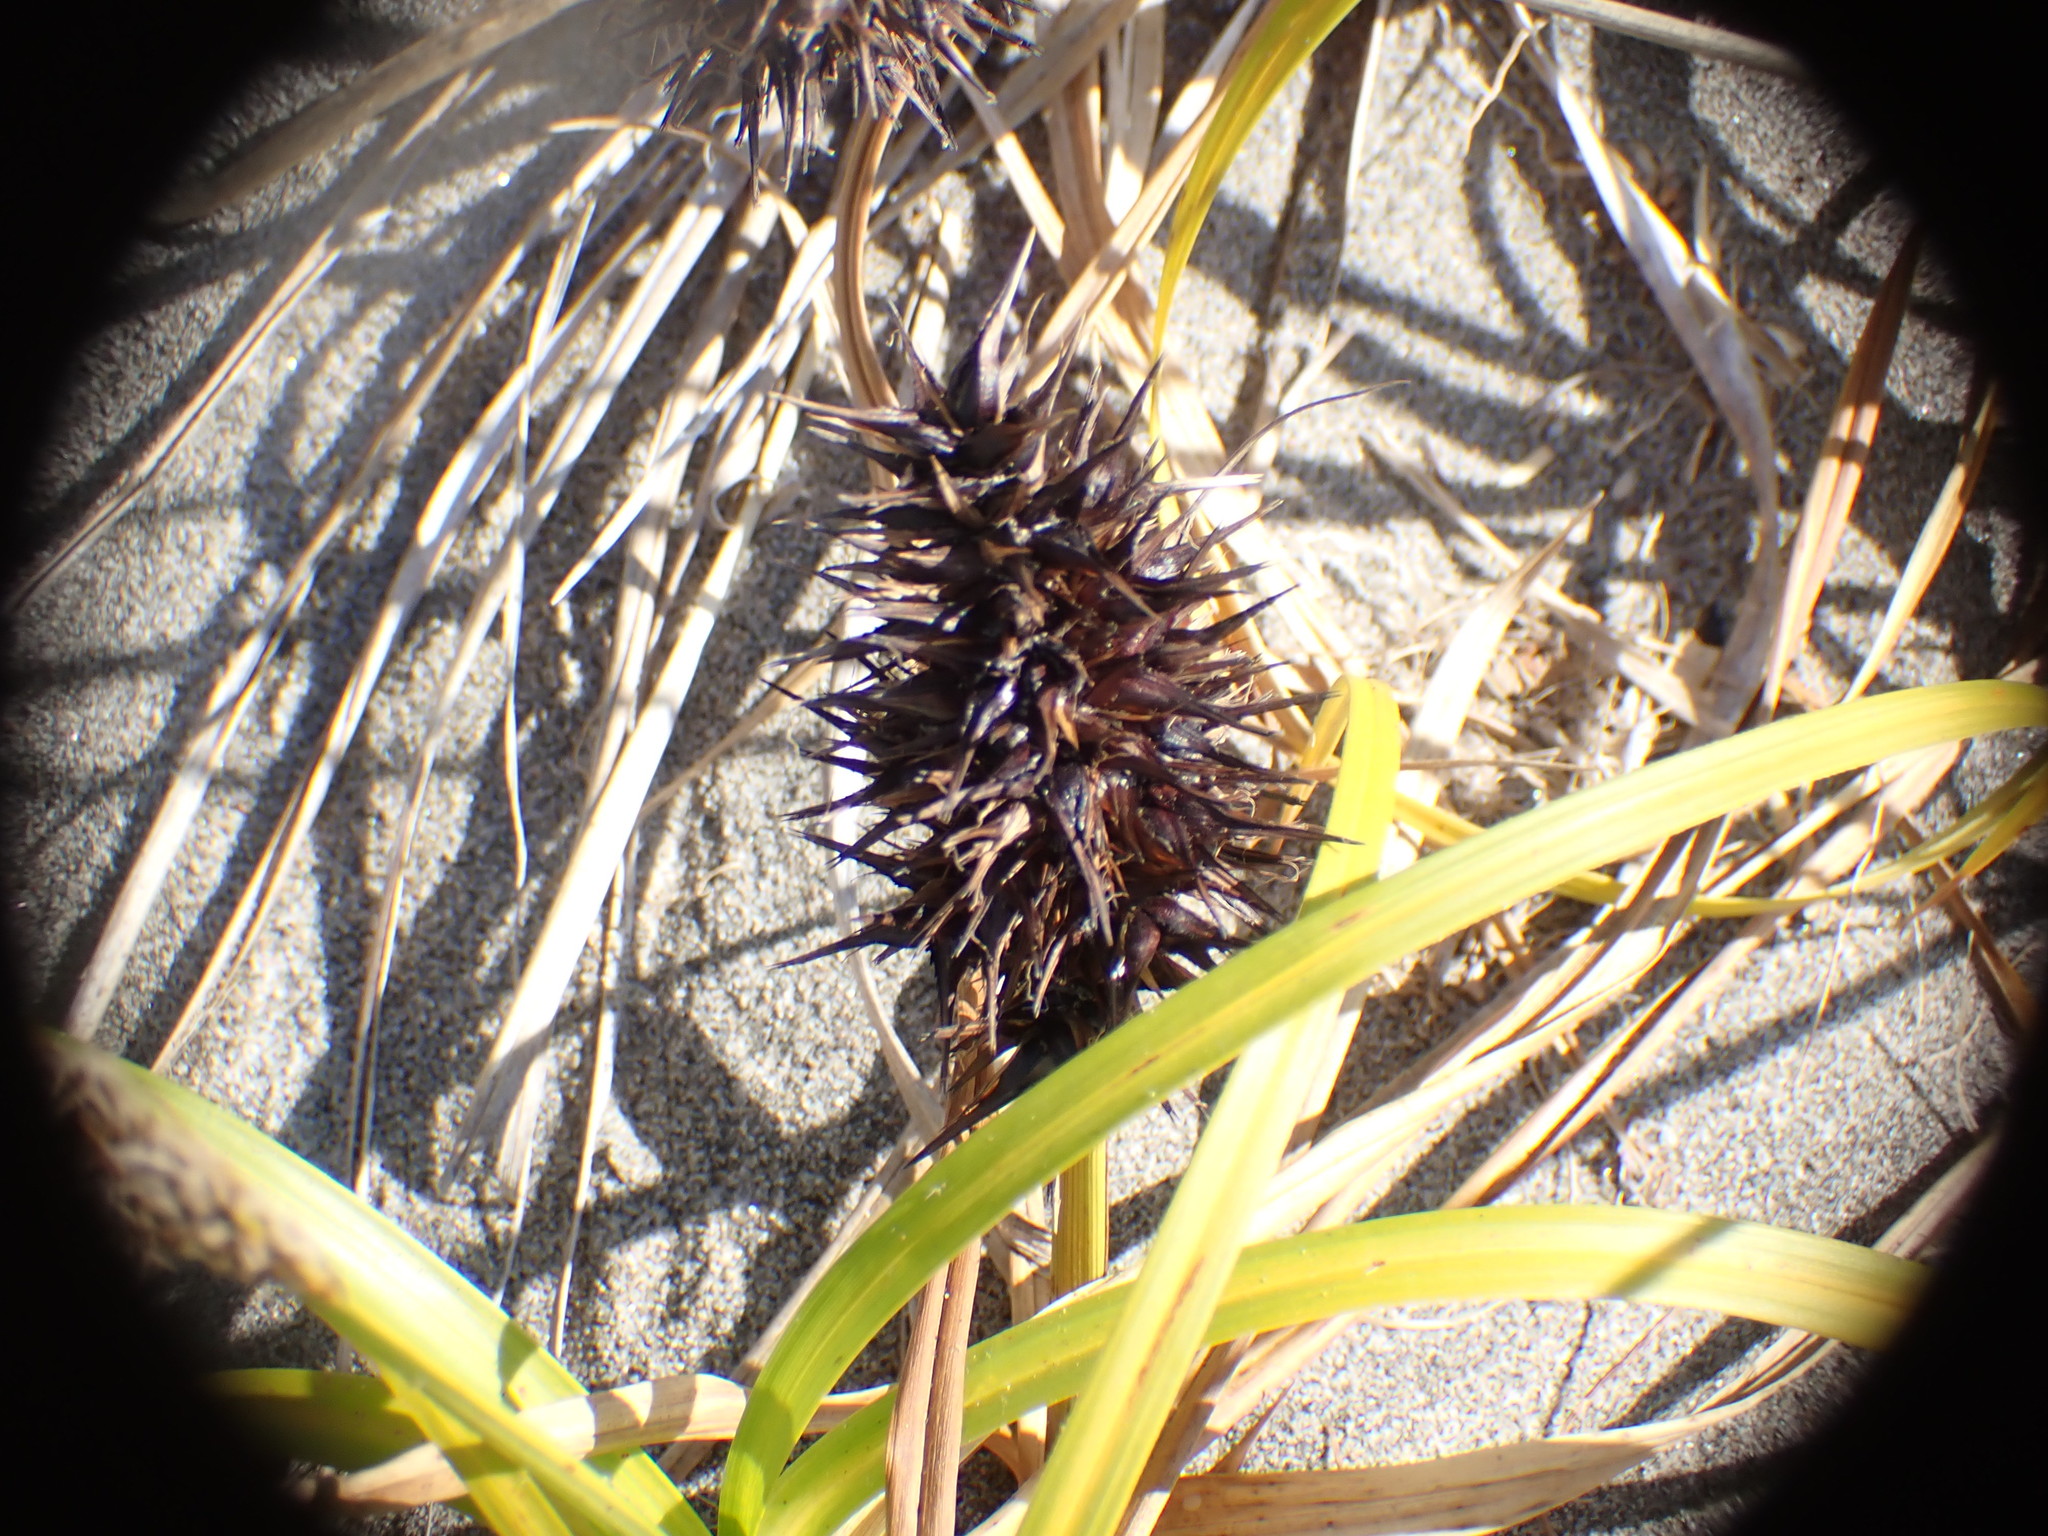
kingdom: Plantae
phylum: Tracheophyta
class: Liliopsida
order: Poales
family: Cyperaceae
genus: Carex
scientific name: Carex macrocephala
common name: Large-head sedge
